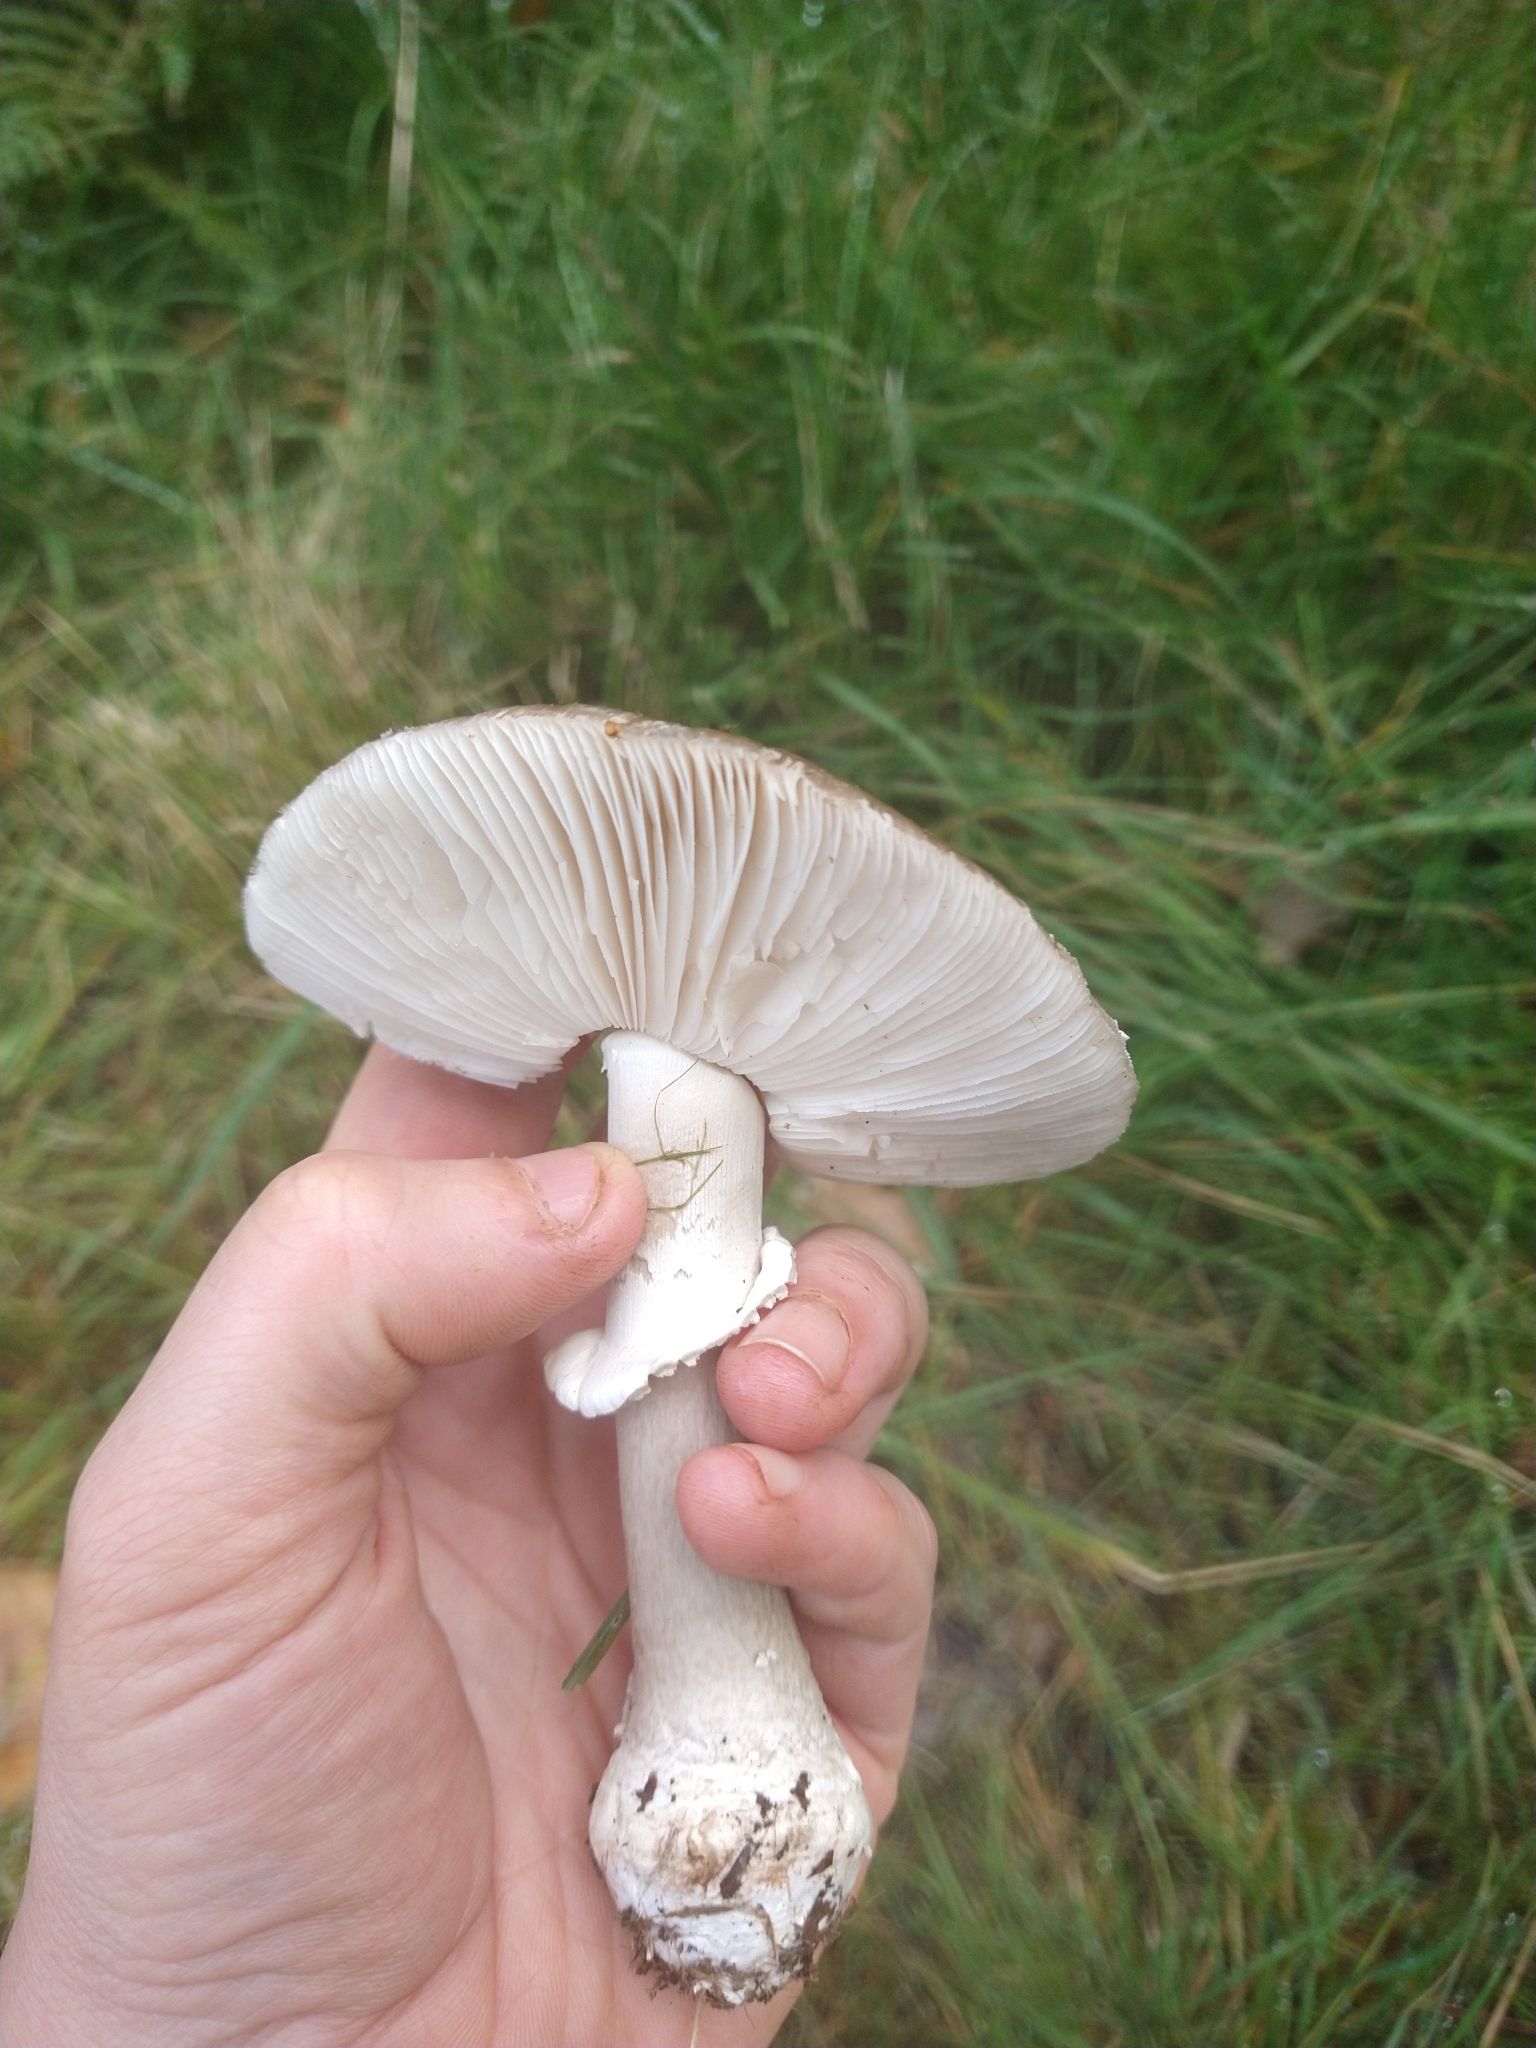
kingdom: Fungi
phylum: Basidiomycota
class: Agaricomycetes
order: Agaricales
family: Amanitaceae
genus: Amanita
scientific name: Amanita excelsa
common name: European false blusher
